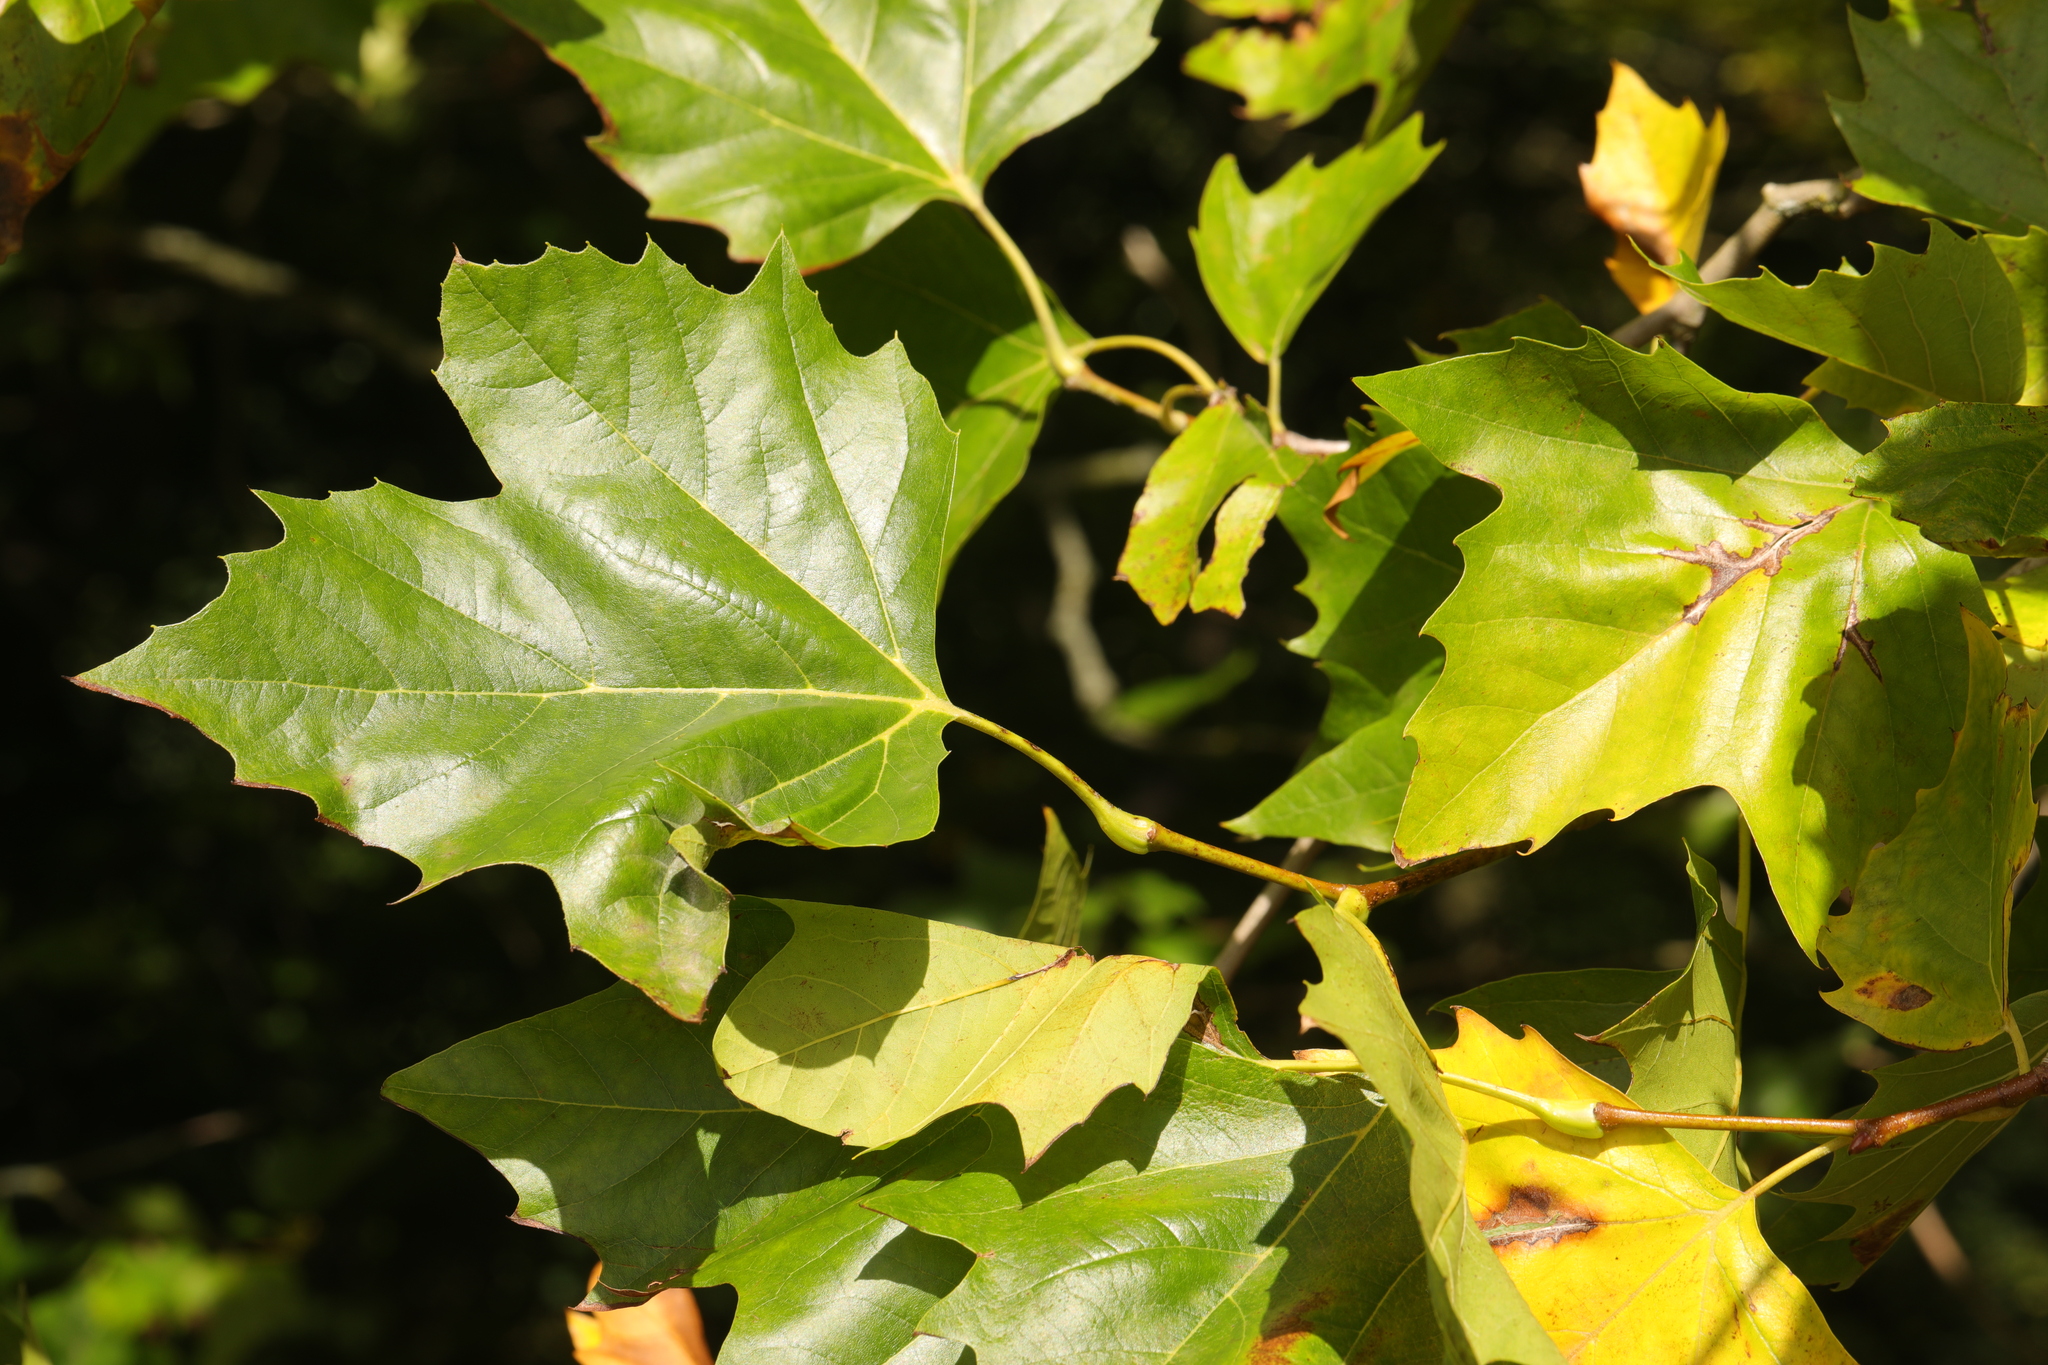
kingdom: Plantae
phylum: Tracheophyta
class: Magnoliopsida
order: Proteales
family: Platanaceae
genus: Platanus
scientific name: Platanus hispanica
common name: London plane
